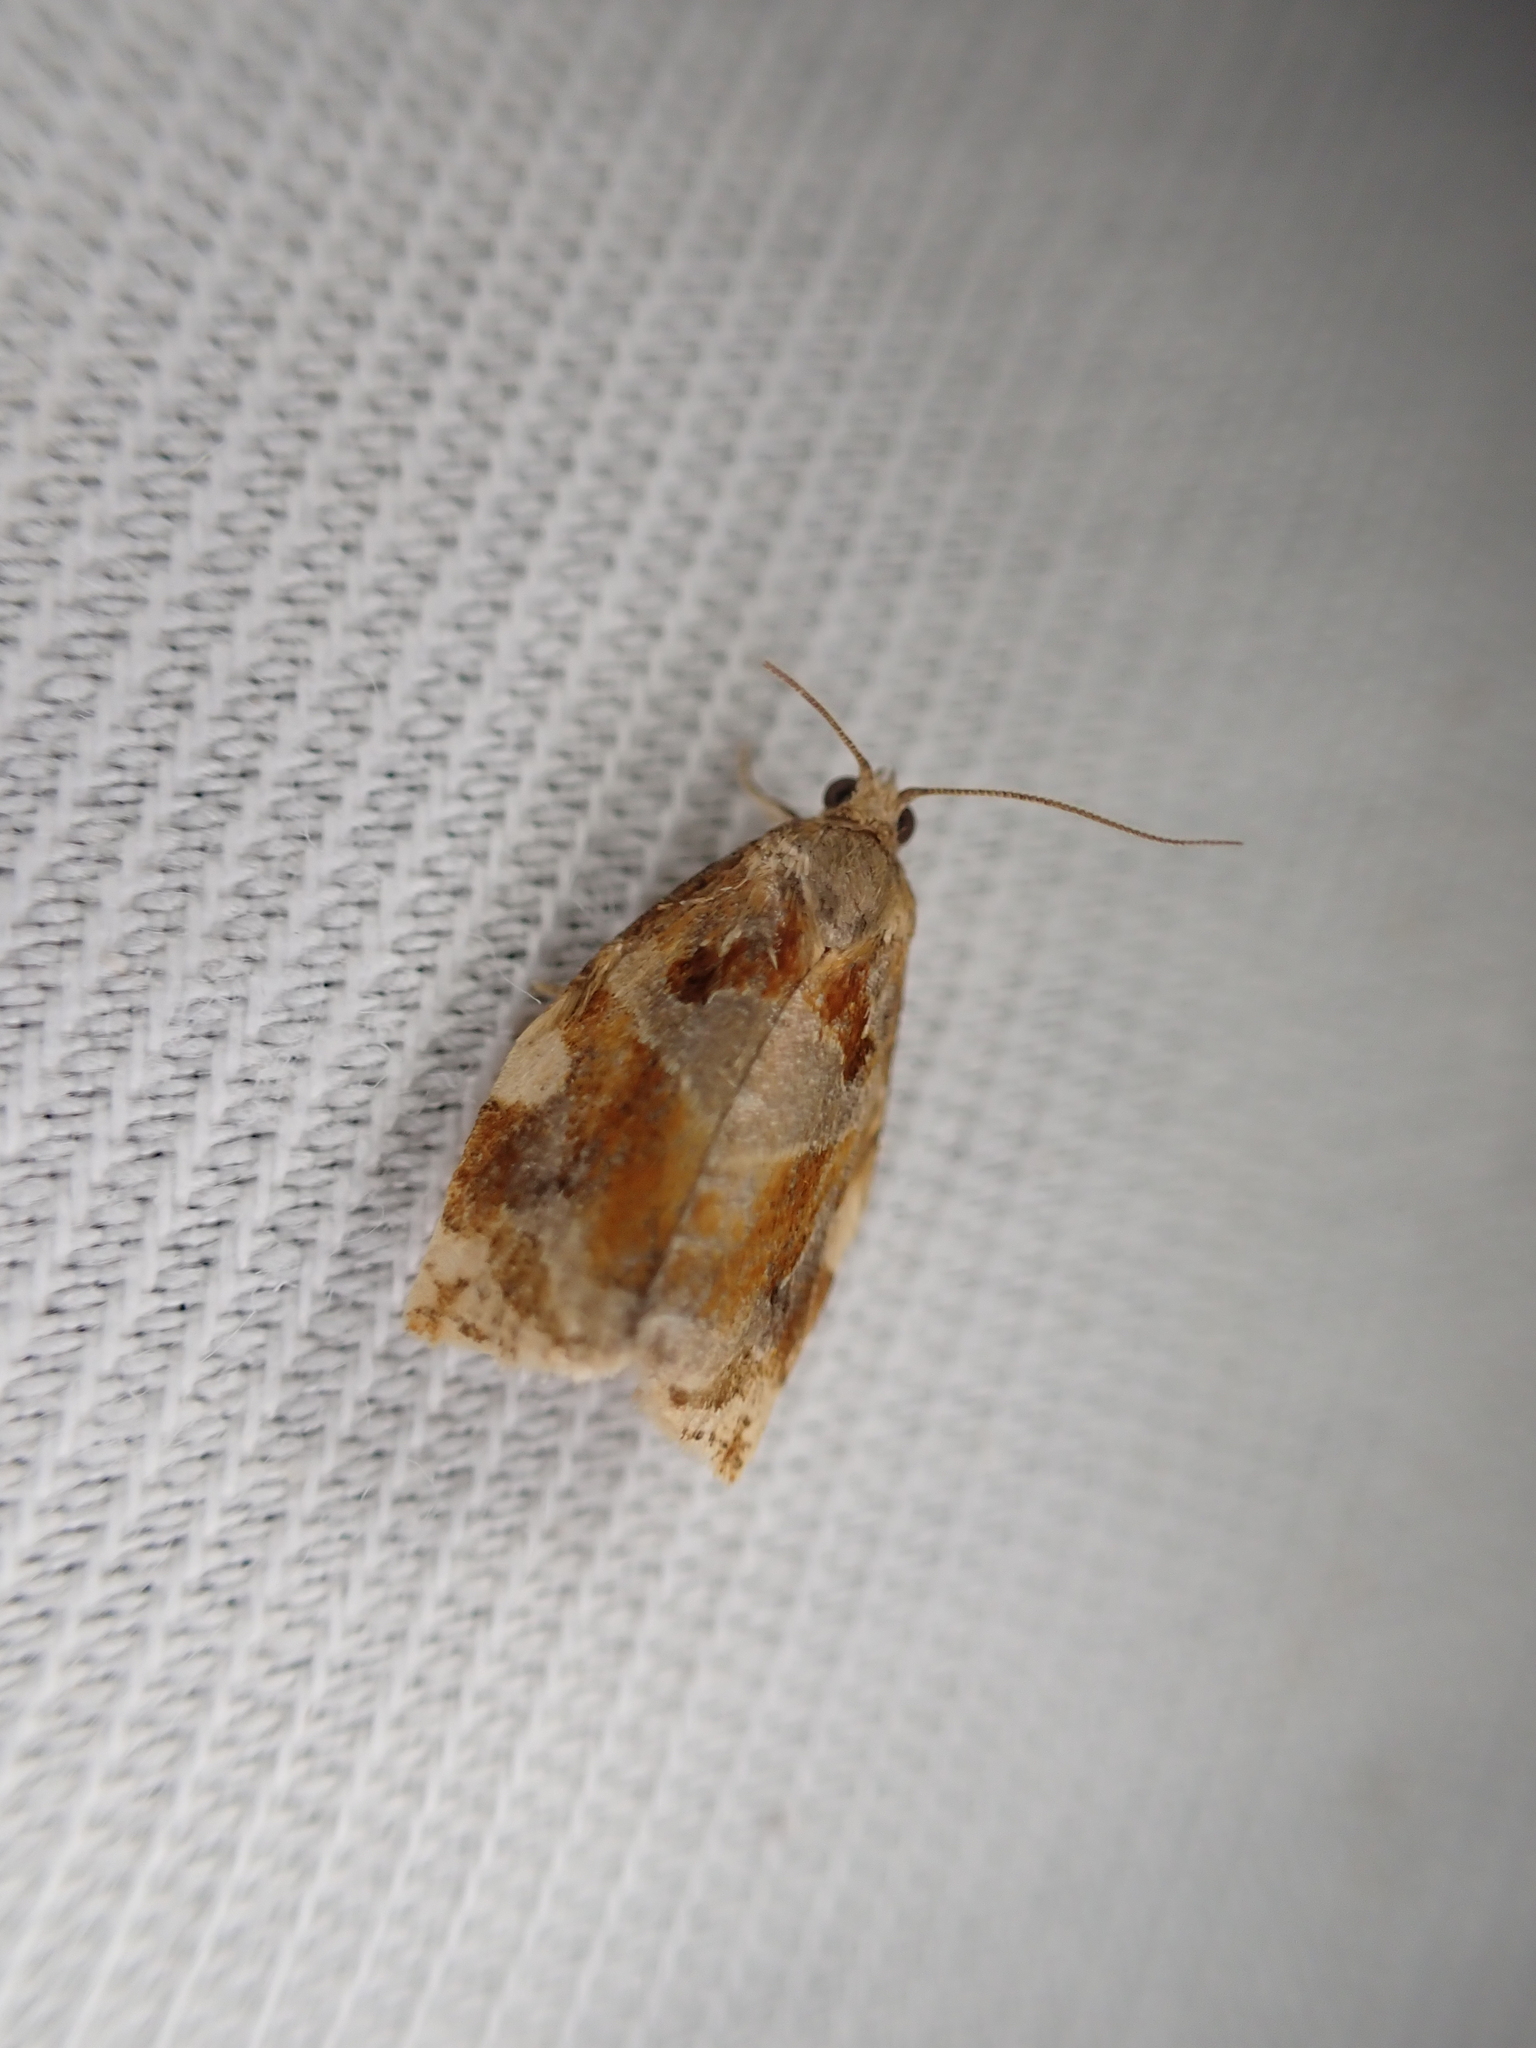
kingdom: Animalia
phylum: Arthropoda
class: Insecta
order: Lepidoptera
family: Tortricidae
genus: Archips
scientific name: Archips xylosteana
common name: Variegated golden tortrix
